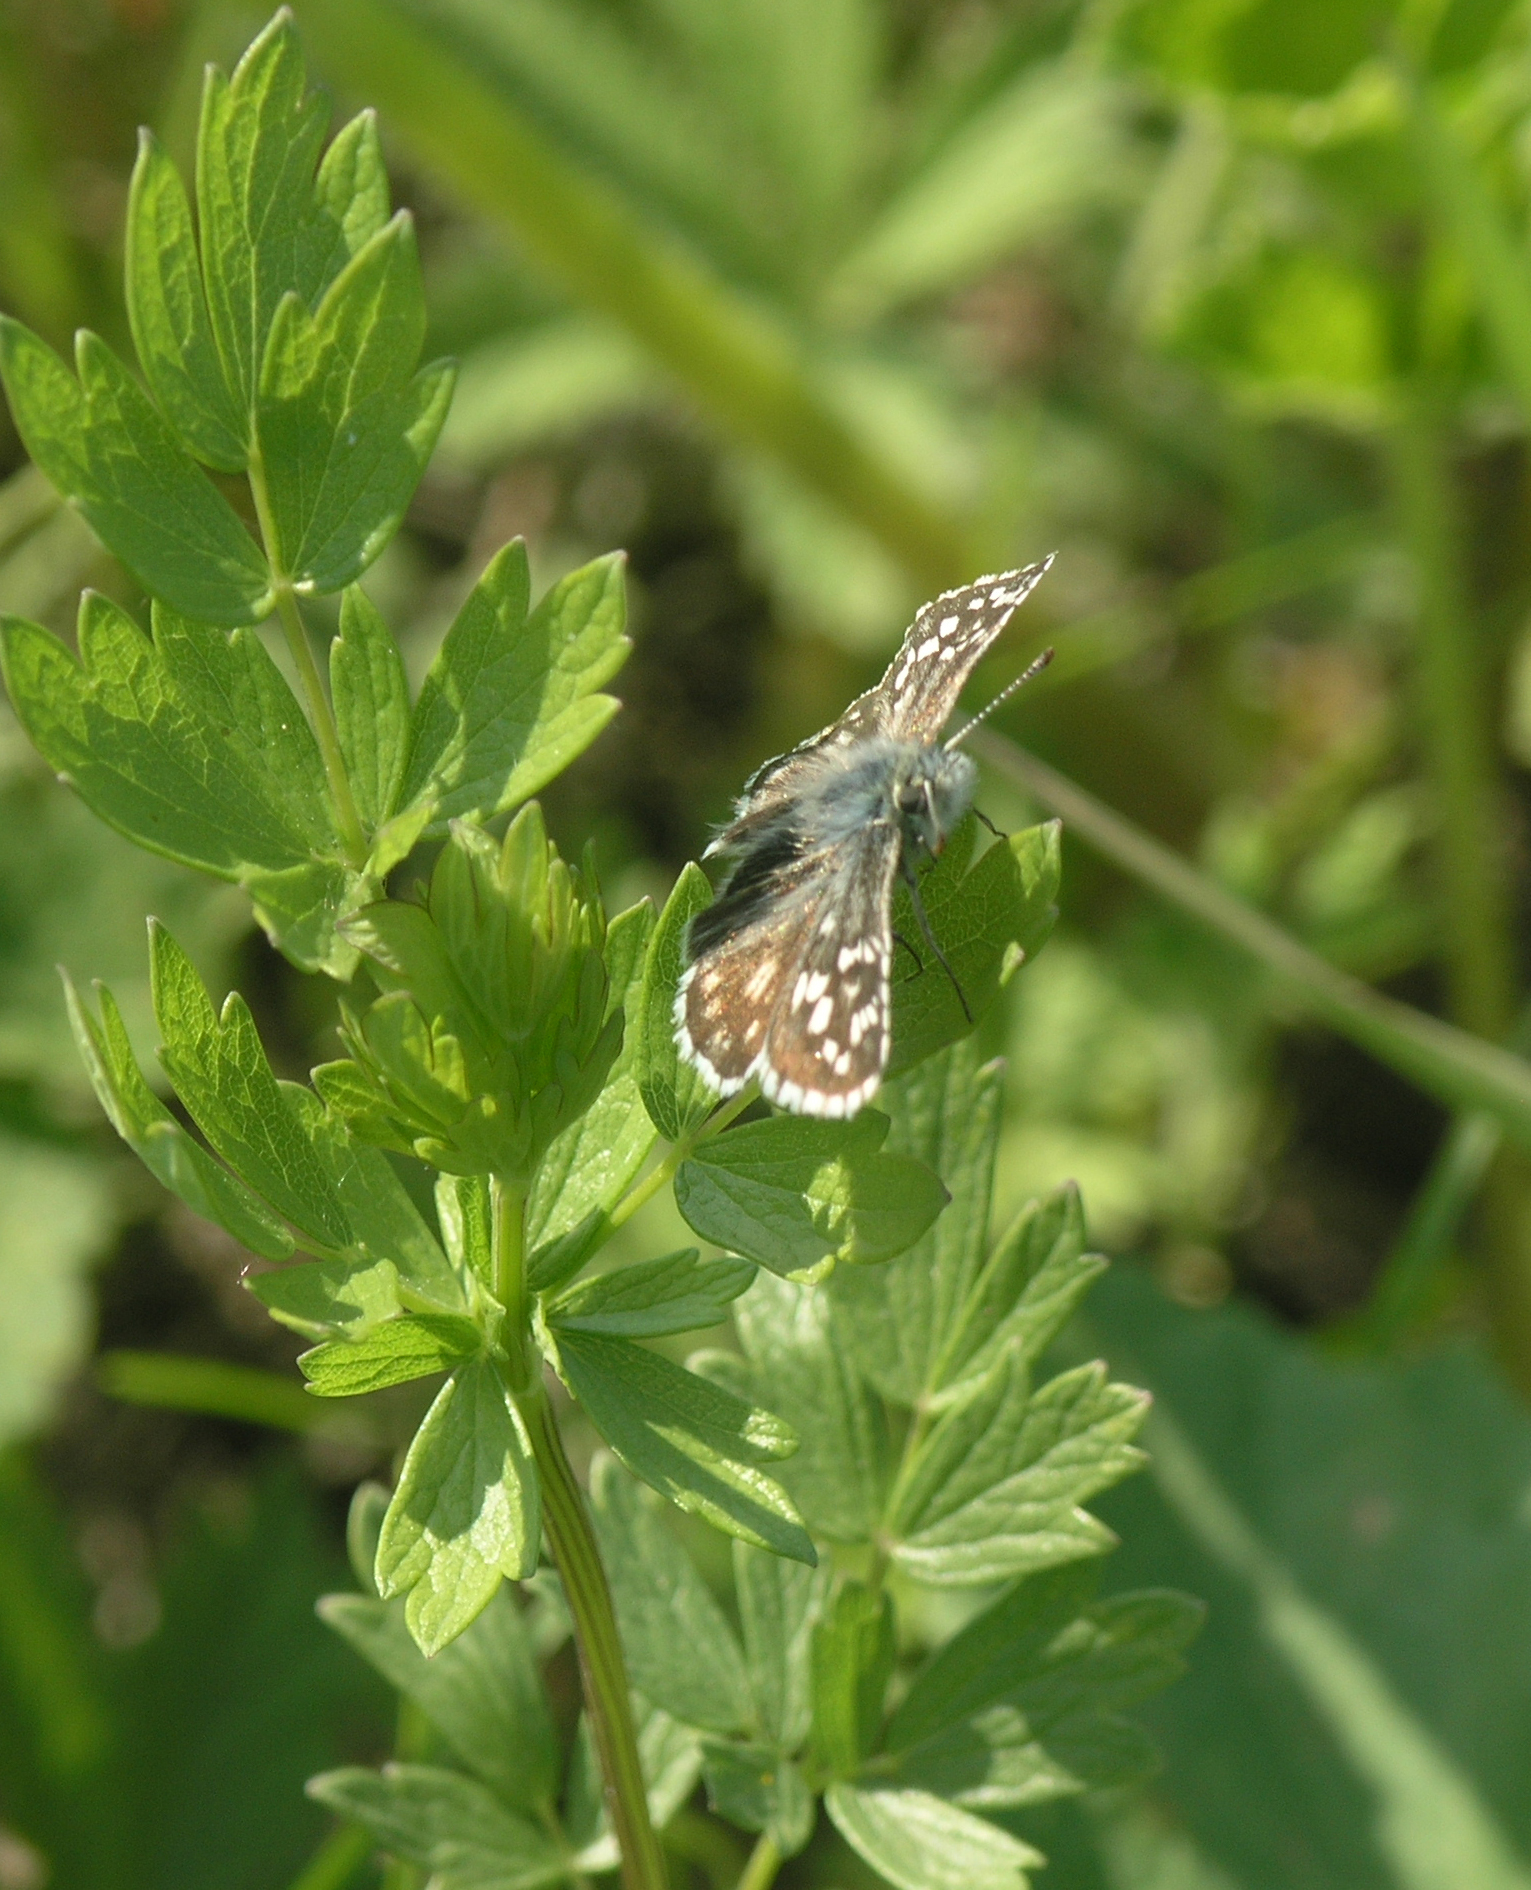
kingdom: Animalia
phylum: Arthropoda
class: Insecta
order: Lepidoptera
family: Hesperiidae
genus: Pyrgus
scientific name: Pyrgus malvae
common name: Grizzled skipper
